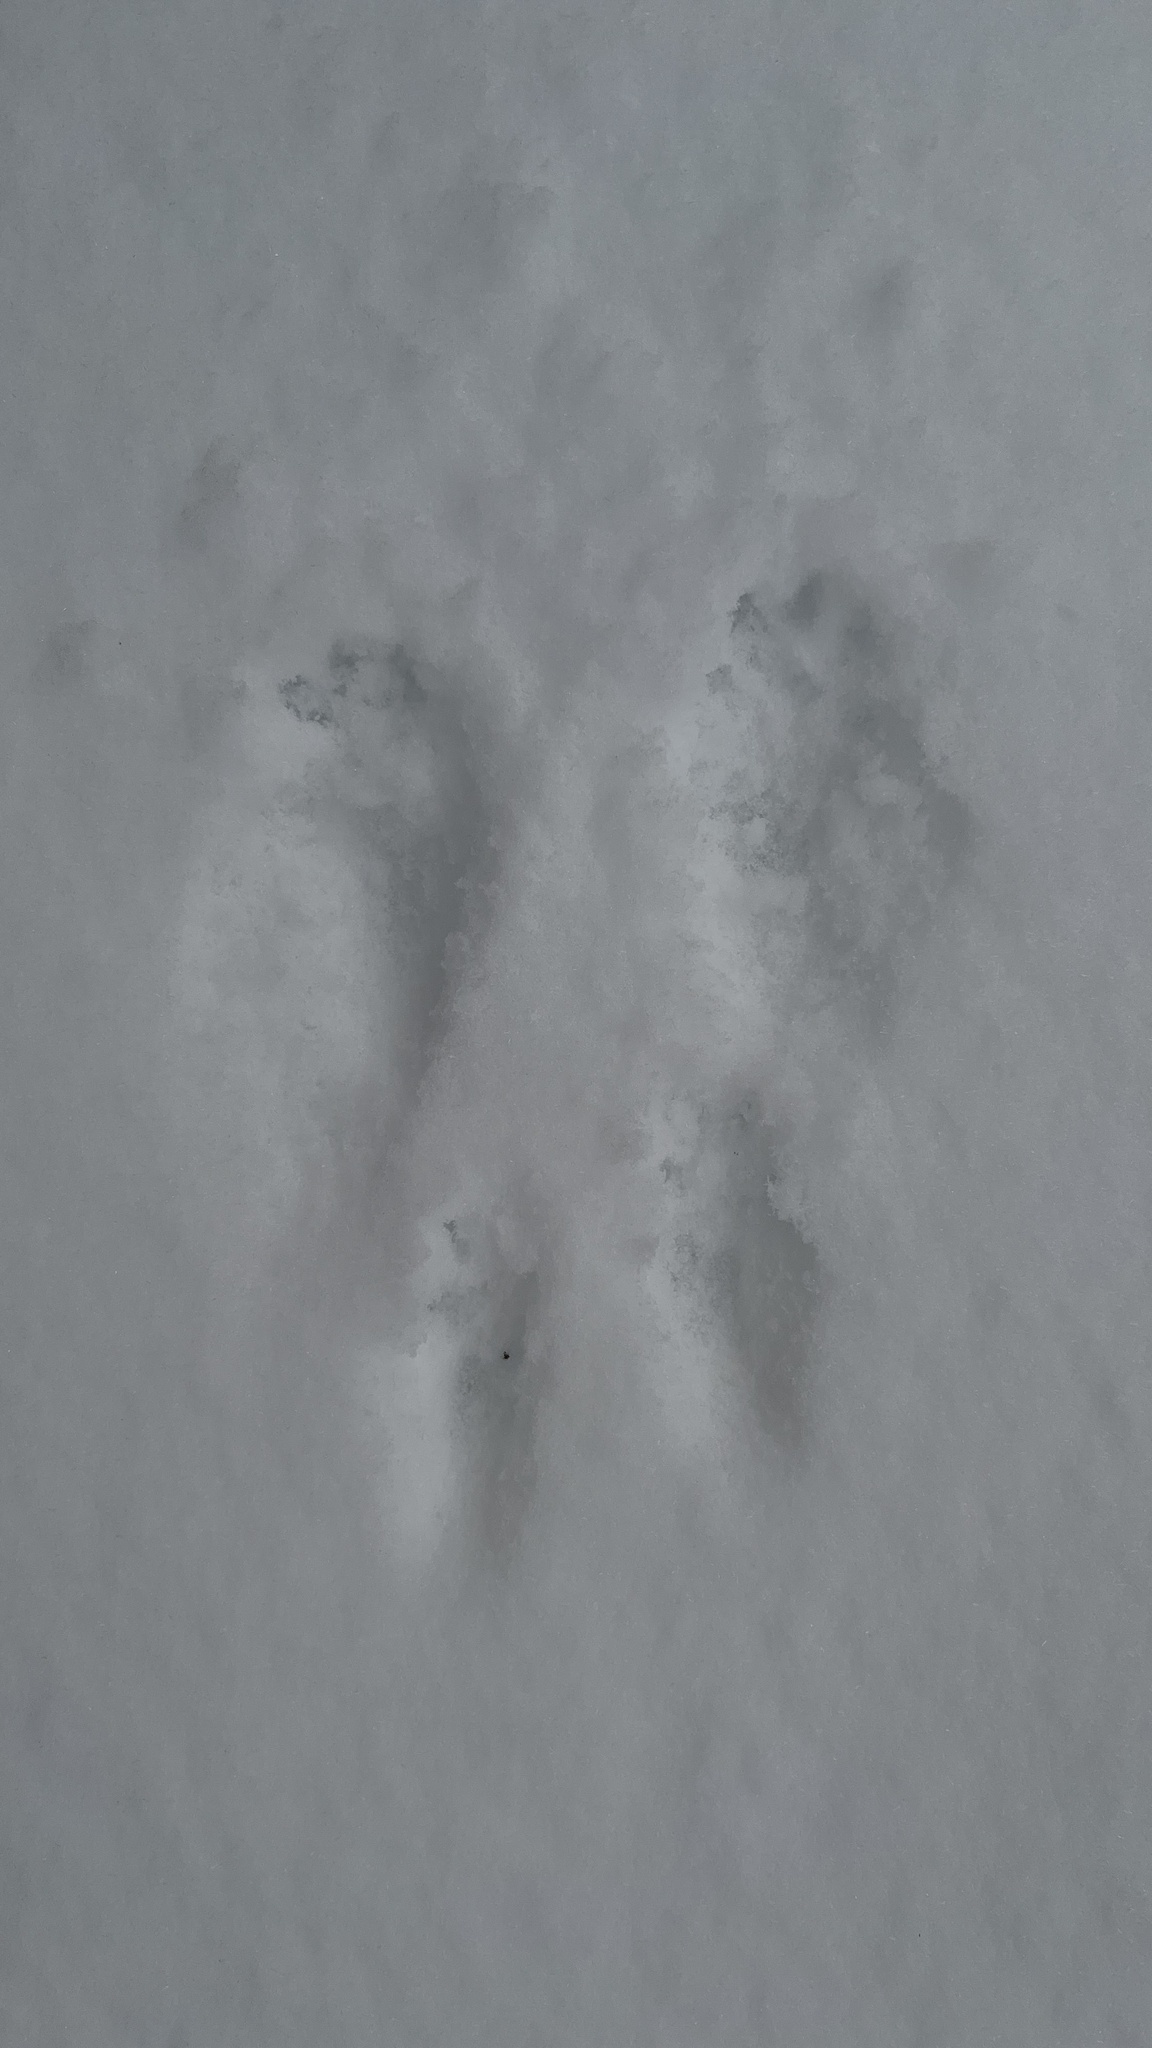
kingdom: Animalia
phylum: Chordata
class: Mammalia
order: Rodentia
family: Sciuridae
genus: Sciurus
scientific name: Sciurus vulgaris
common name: Eurasian red squirrel
